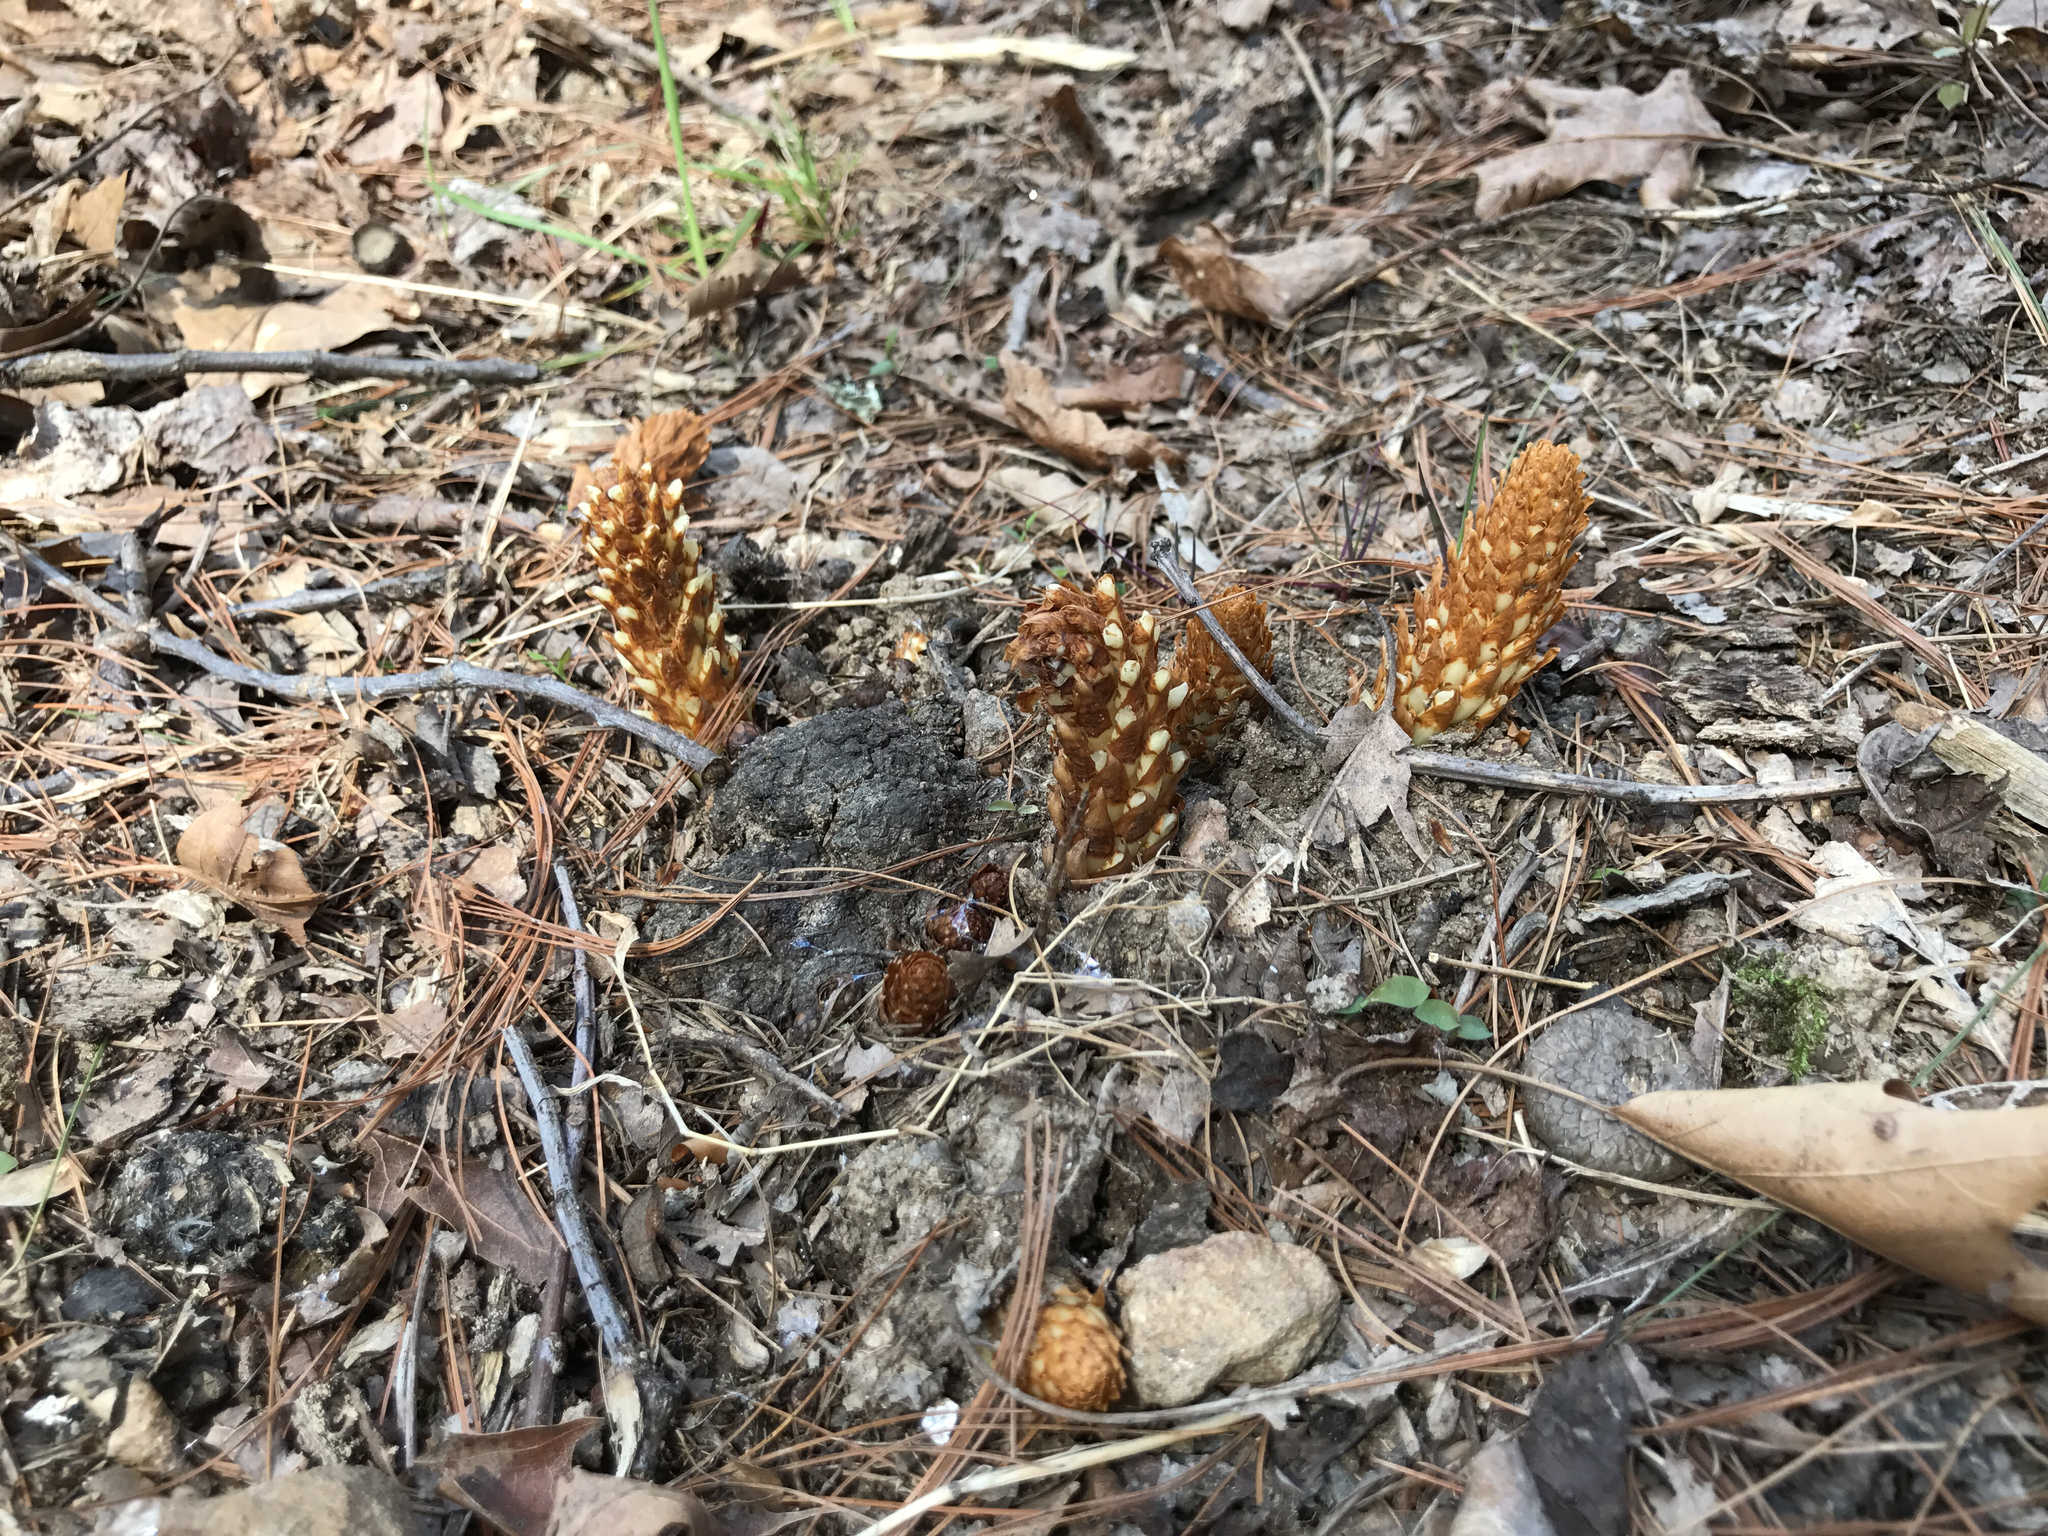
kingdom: Plantae
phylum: Tracheophyta
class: Magnoliopsida
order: Lamiales
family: Orobanchaceae
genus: Conopholis
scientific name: Conopholis americana
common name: American cancer-root
